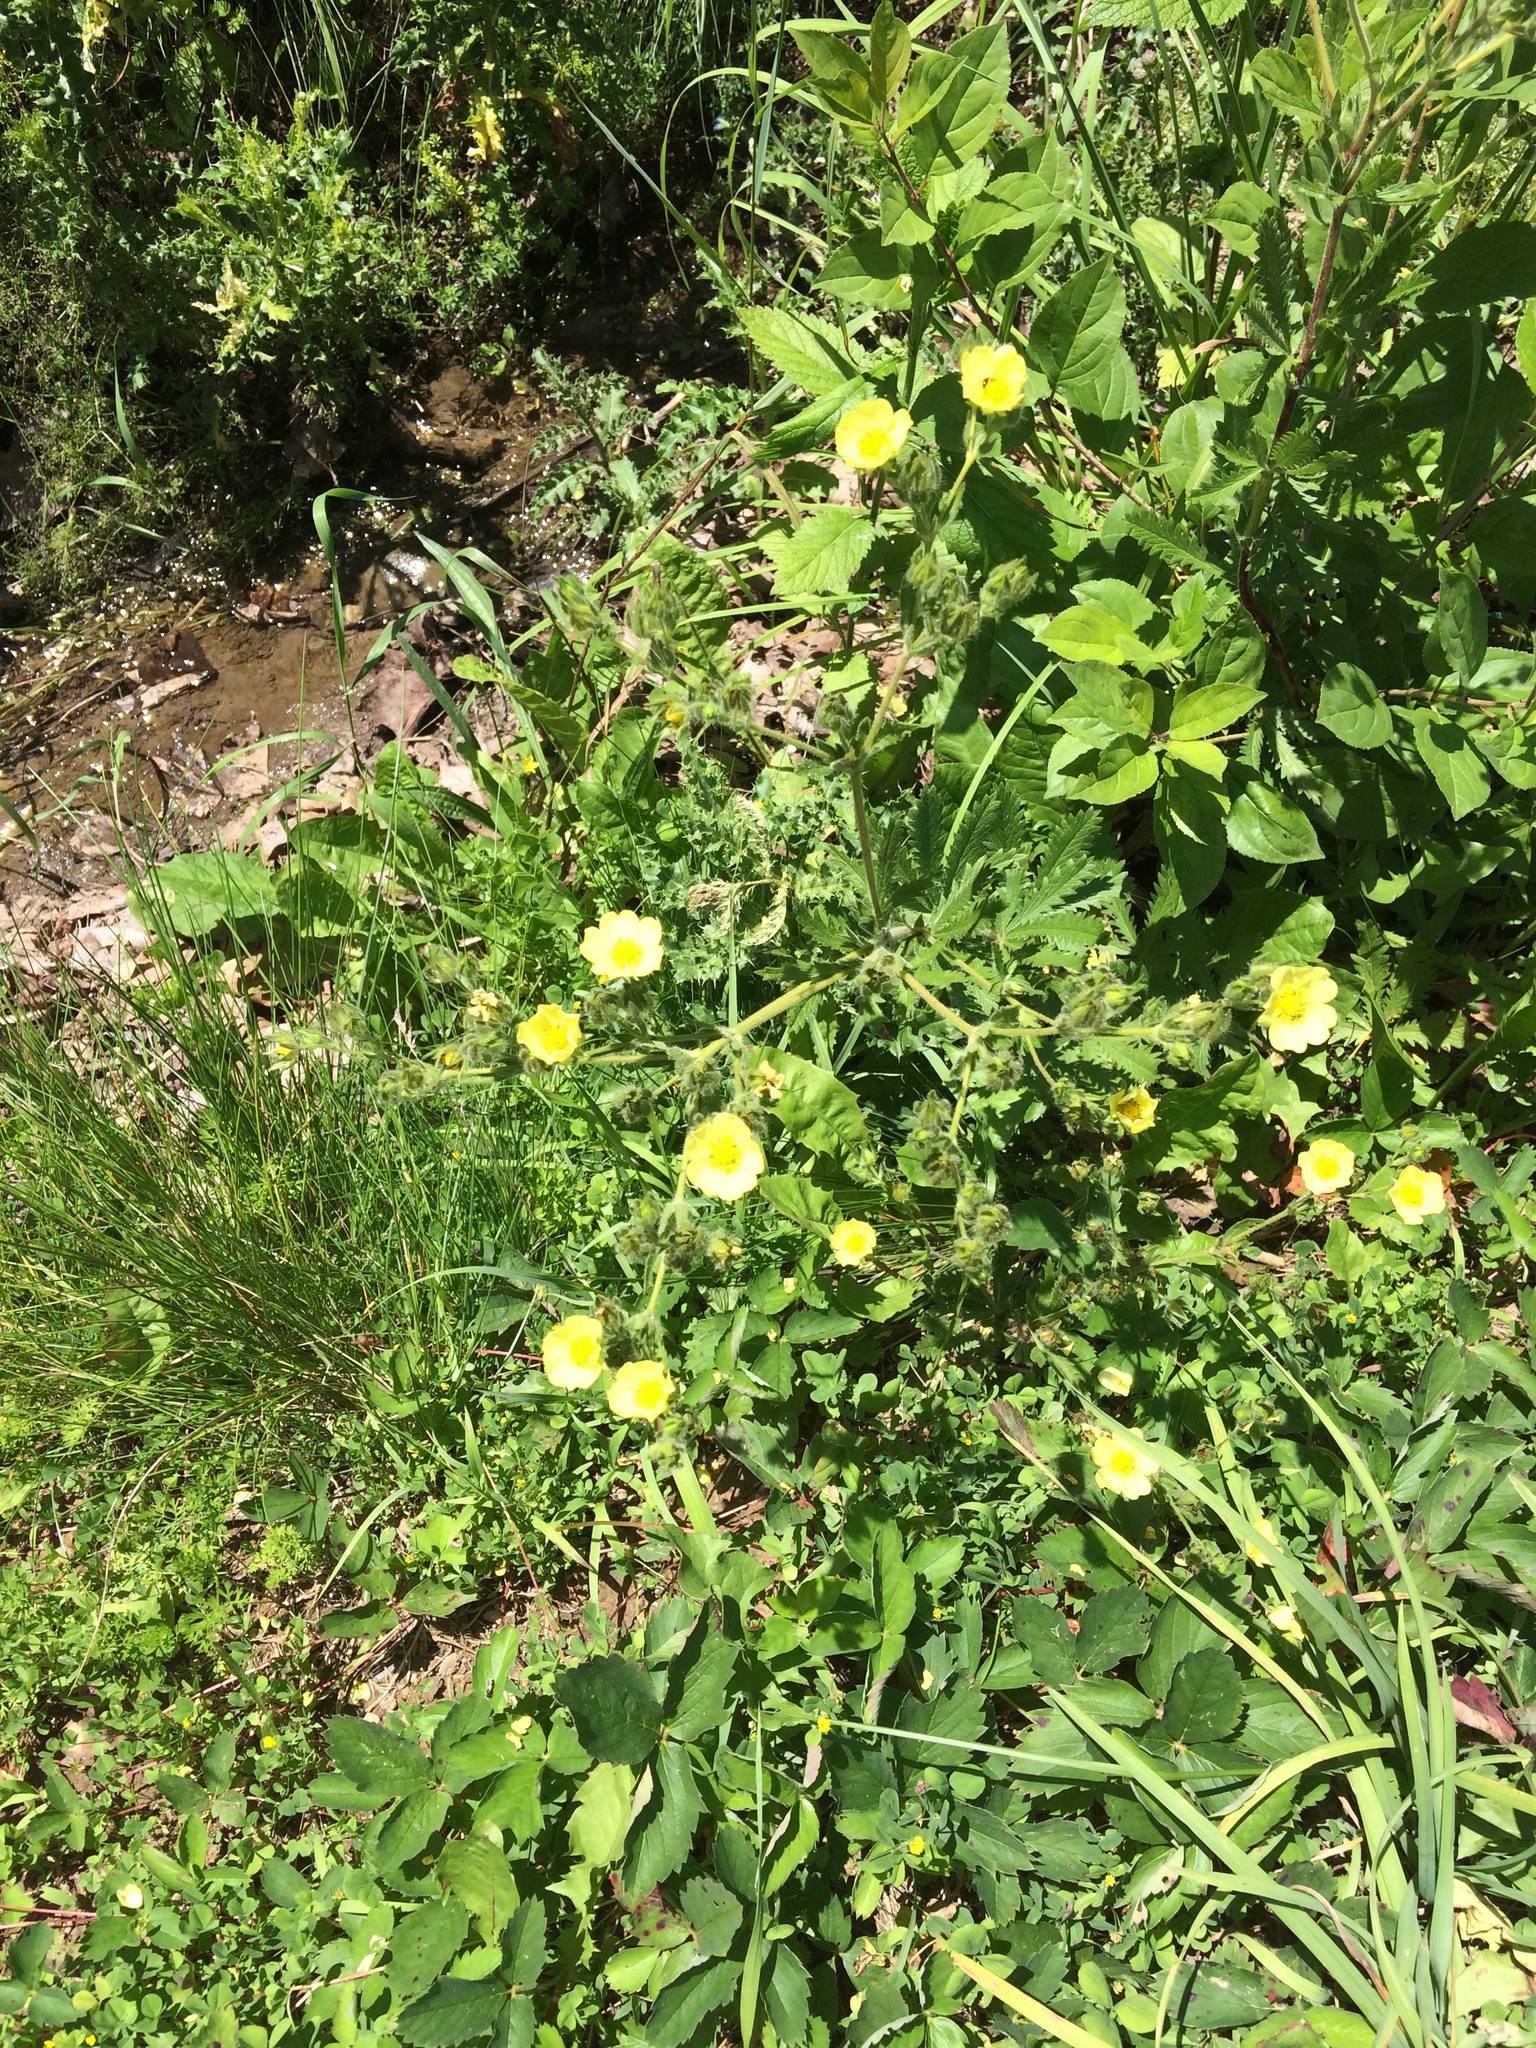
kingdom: Plantae
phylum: Tracheophyta
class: Magnoliopsida
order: Rosales
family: Rosaceae
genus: Potentilla
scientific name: Potentilla recta
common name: Sulphur cinquefoil
